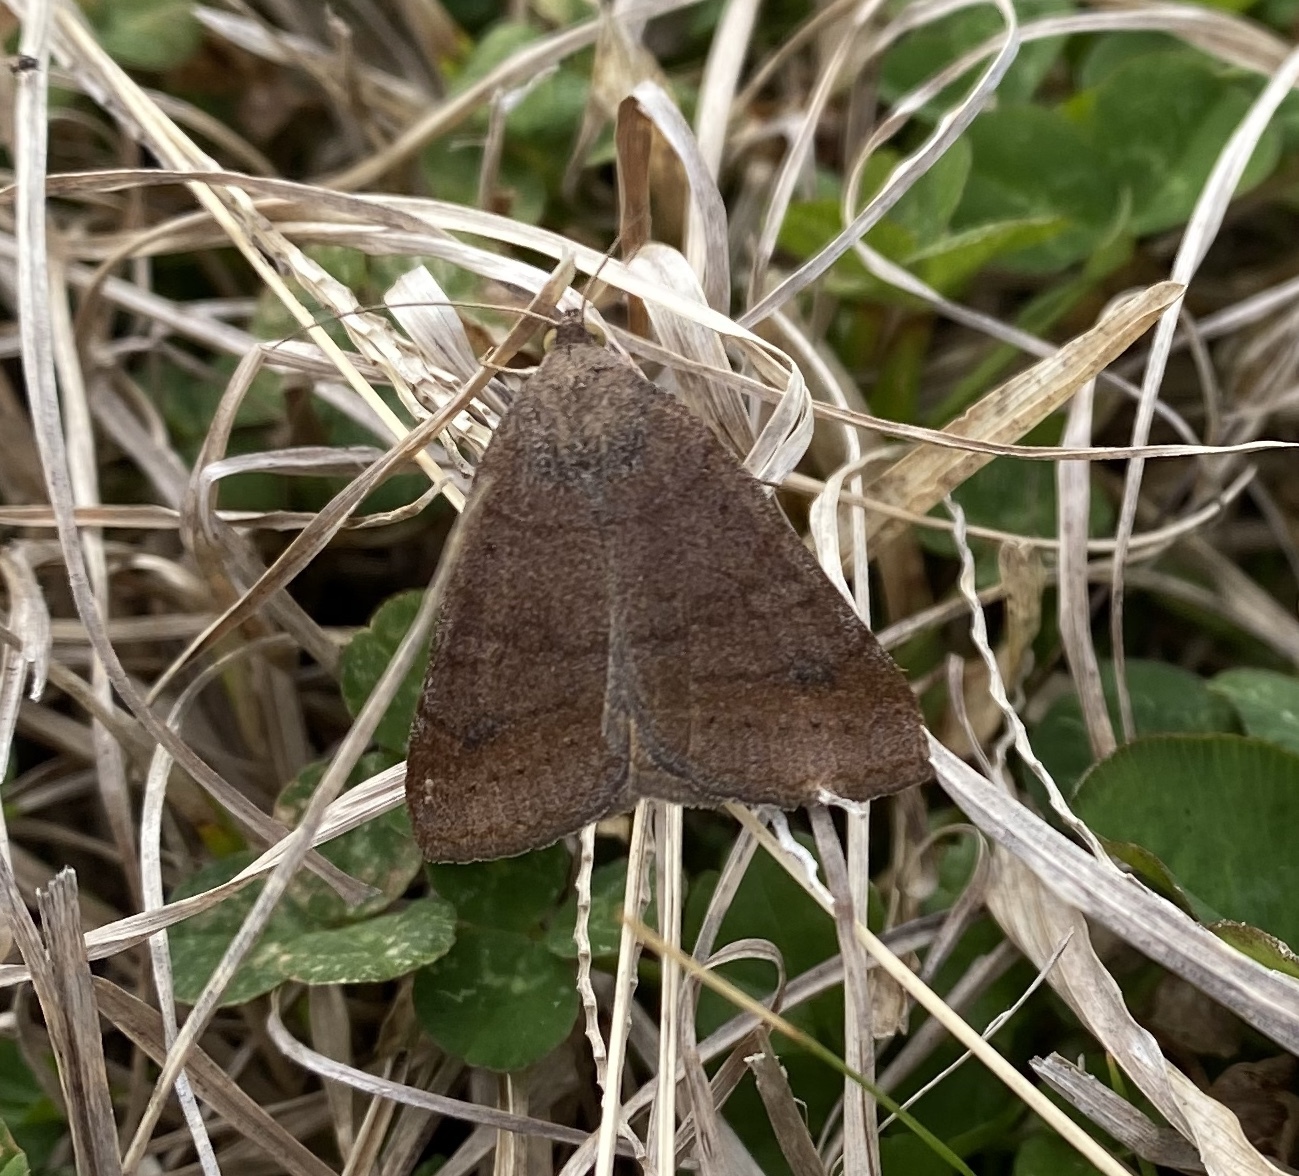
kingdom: Animalia
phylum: Arthropoda
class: Insecta
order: Lepidoptera
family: Erebidae
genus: Caenurgia
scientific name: Caenurgia chloropha
